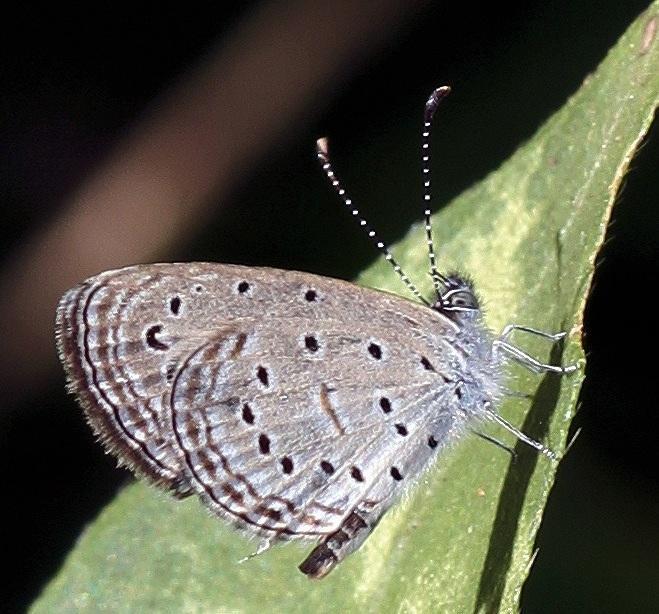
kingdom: Animalia
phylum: Arthropoda
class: Insecta
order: Lepidoptera
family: Lycaenidae
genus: Zizula
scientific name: Zizula hylax
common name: Gaika blue
